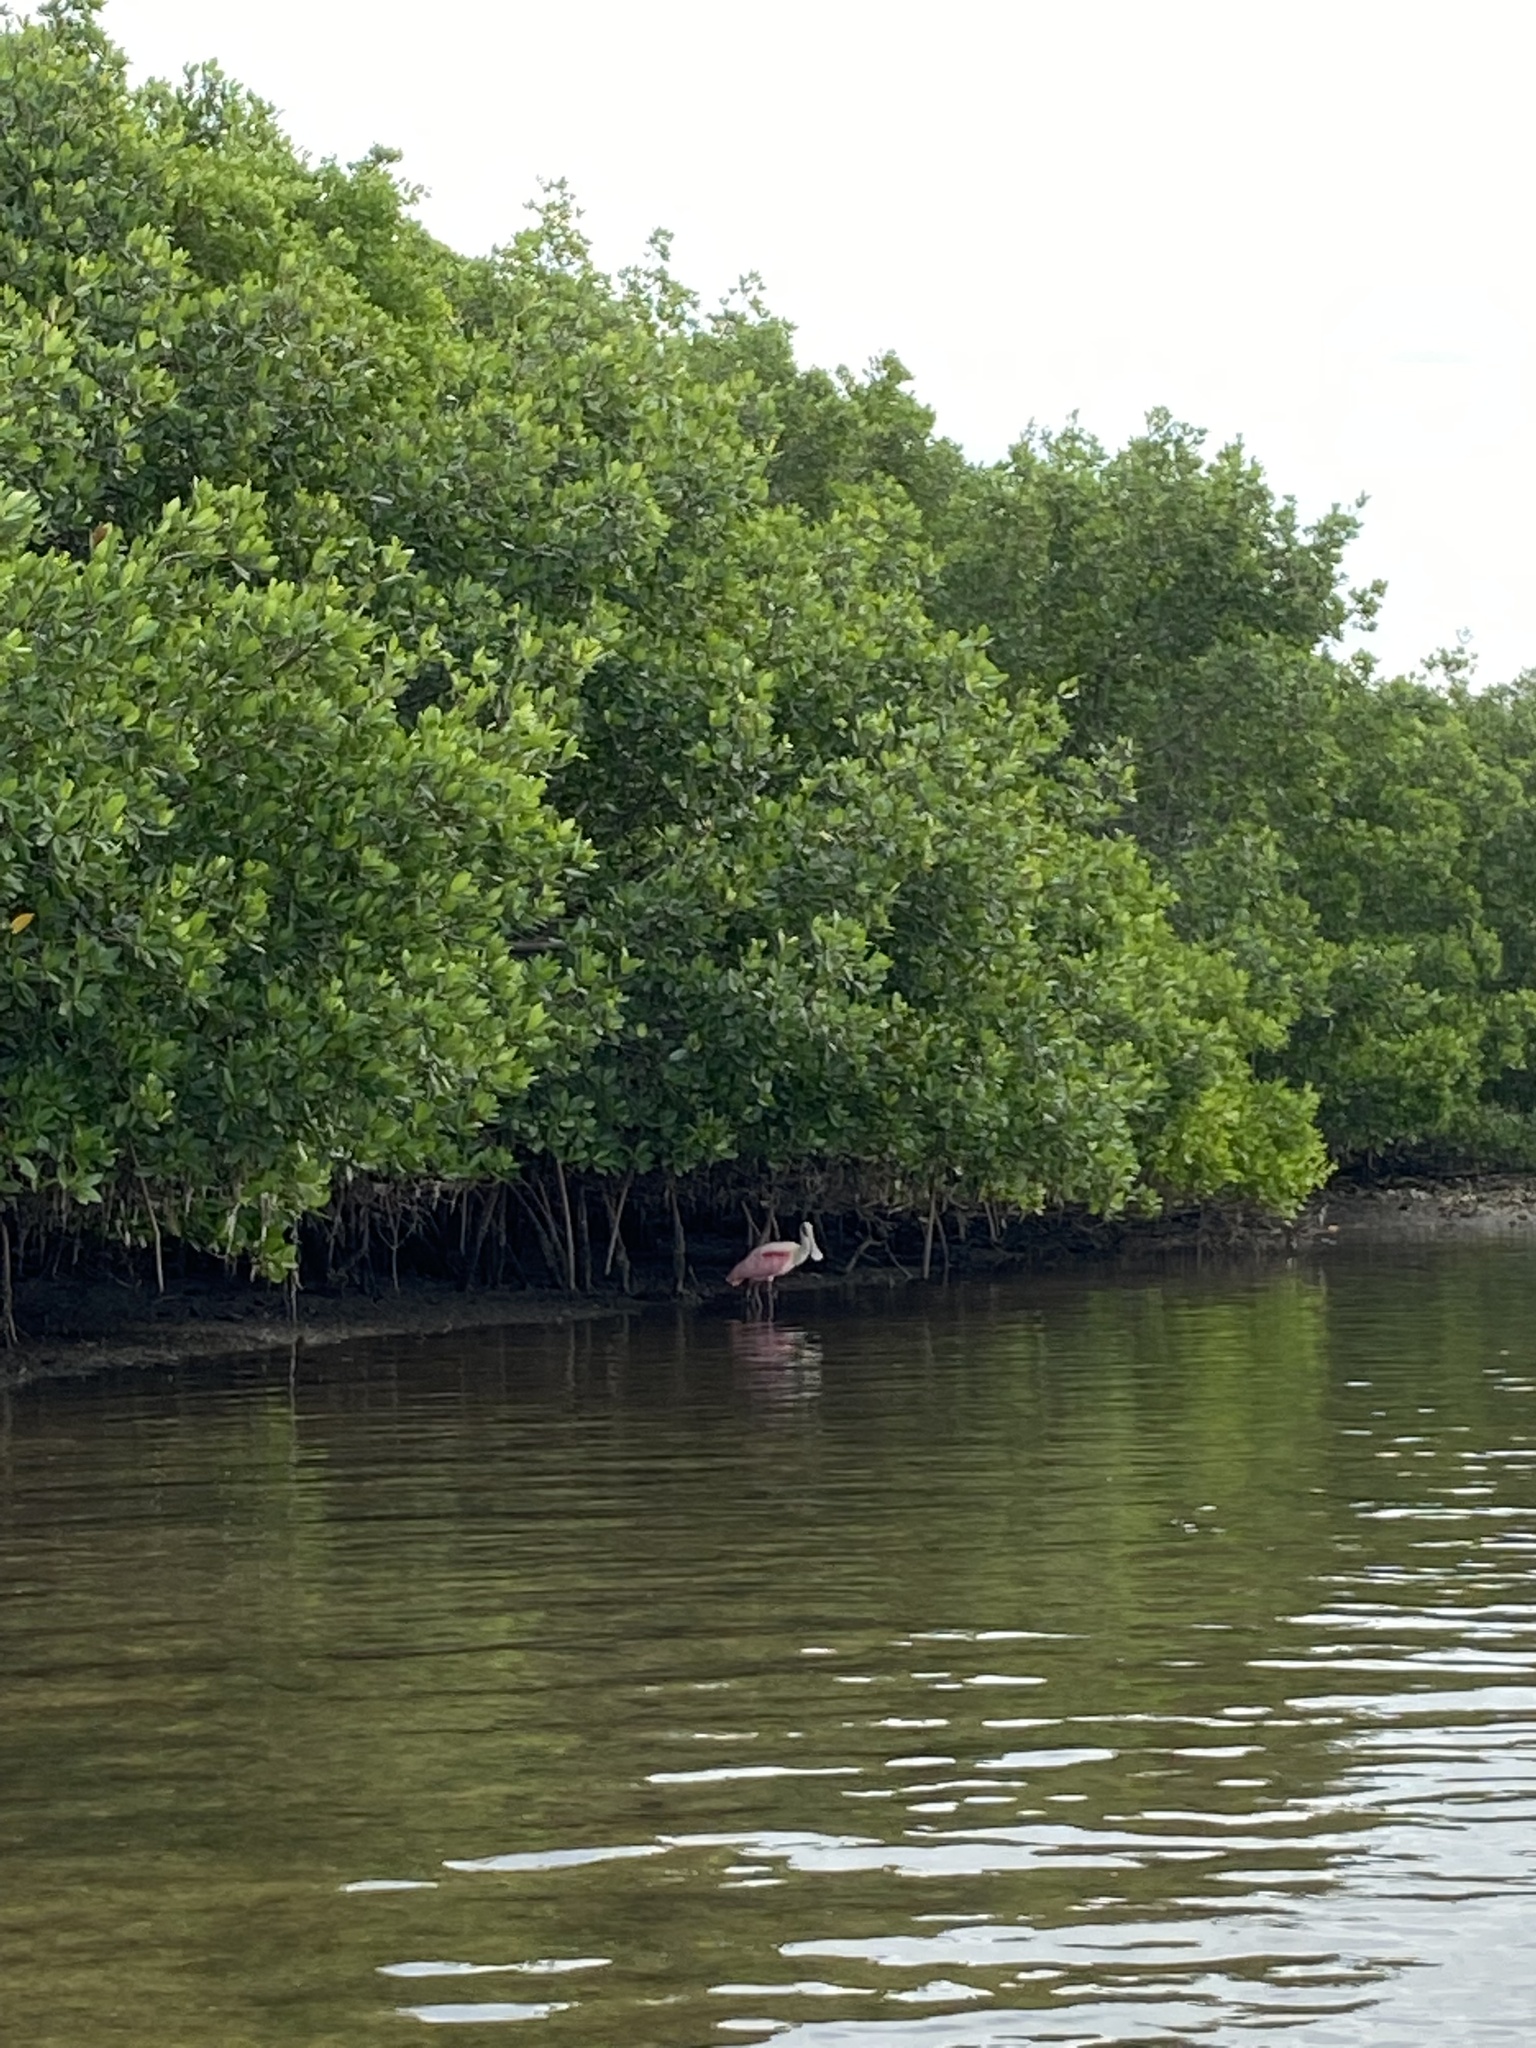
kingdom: Animalia
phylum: Chordata
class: Aves
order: Pelecaniformes
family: Threskiornithidae
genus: Platalea
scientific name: Platalea ajaja
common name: Roseate spoonbill
